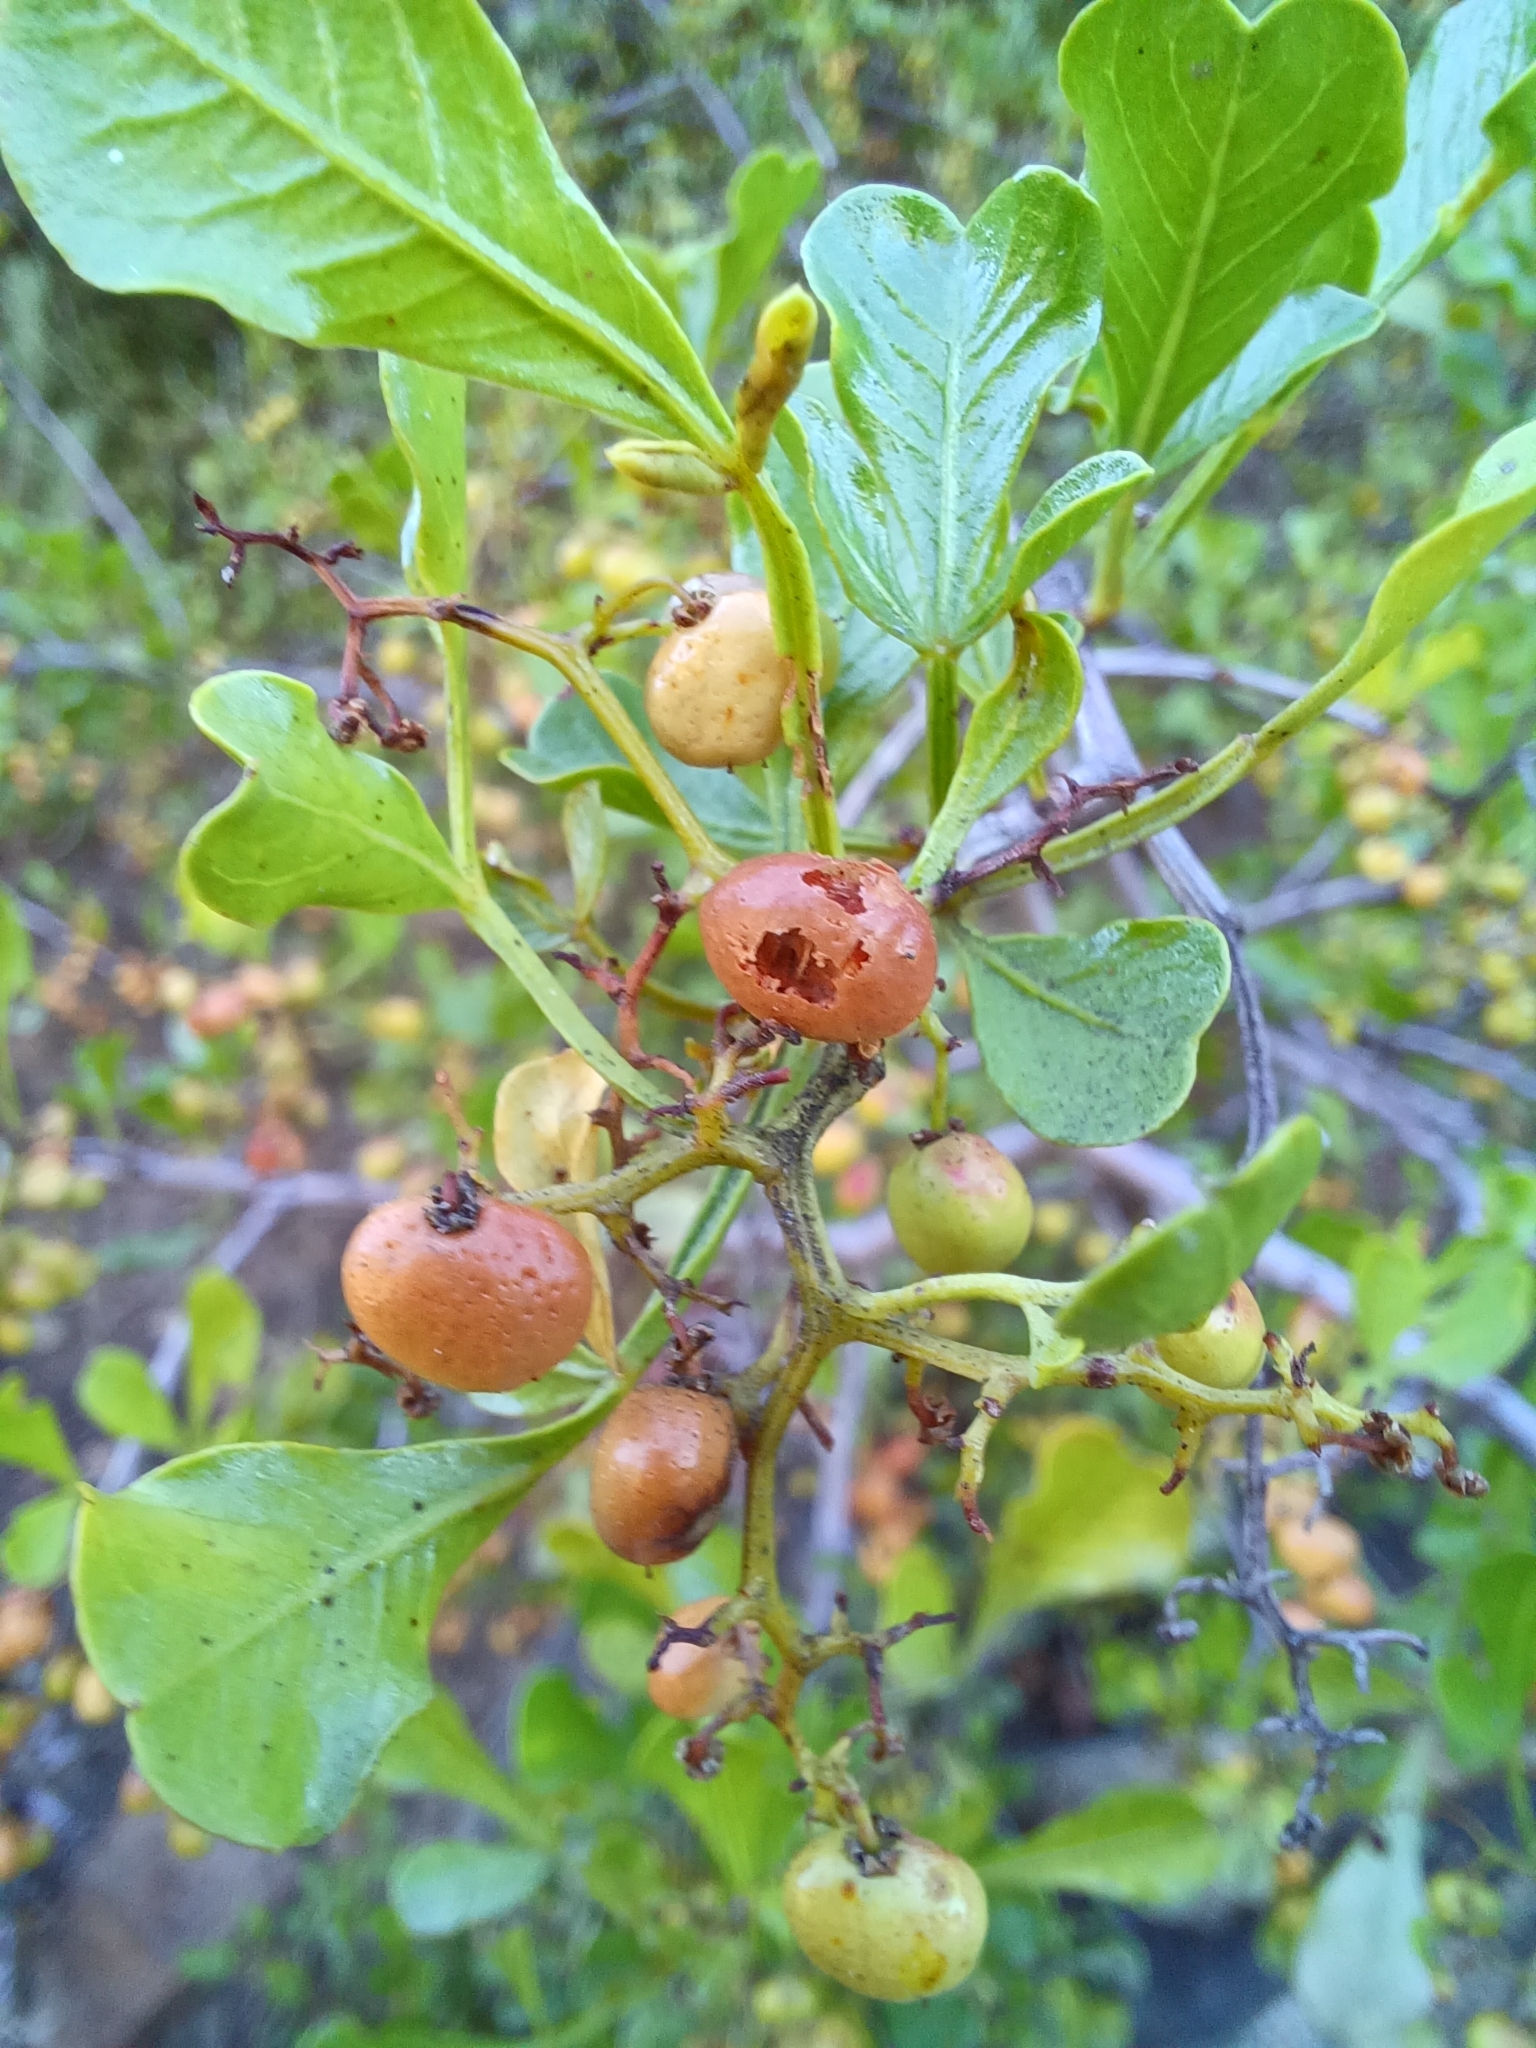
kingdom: Plantae
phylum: Tracheophyta
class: Magnoliopsida
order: Sapindales
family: Anacardiaceae
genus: Searsia
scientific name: Searsia undulata
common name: Namaqua kunibush
